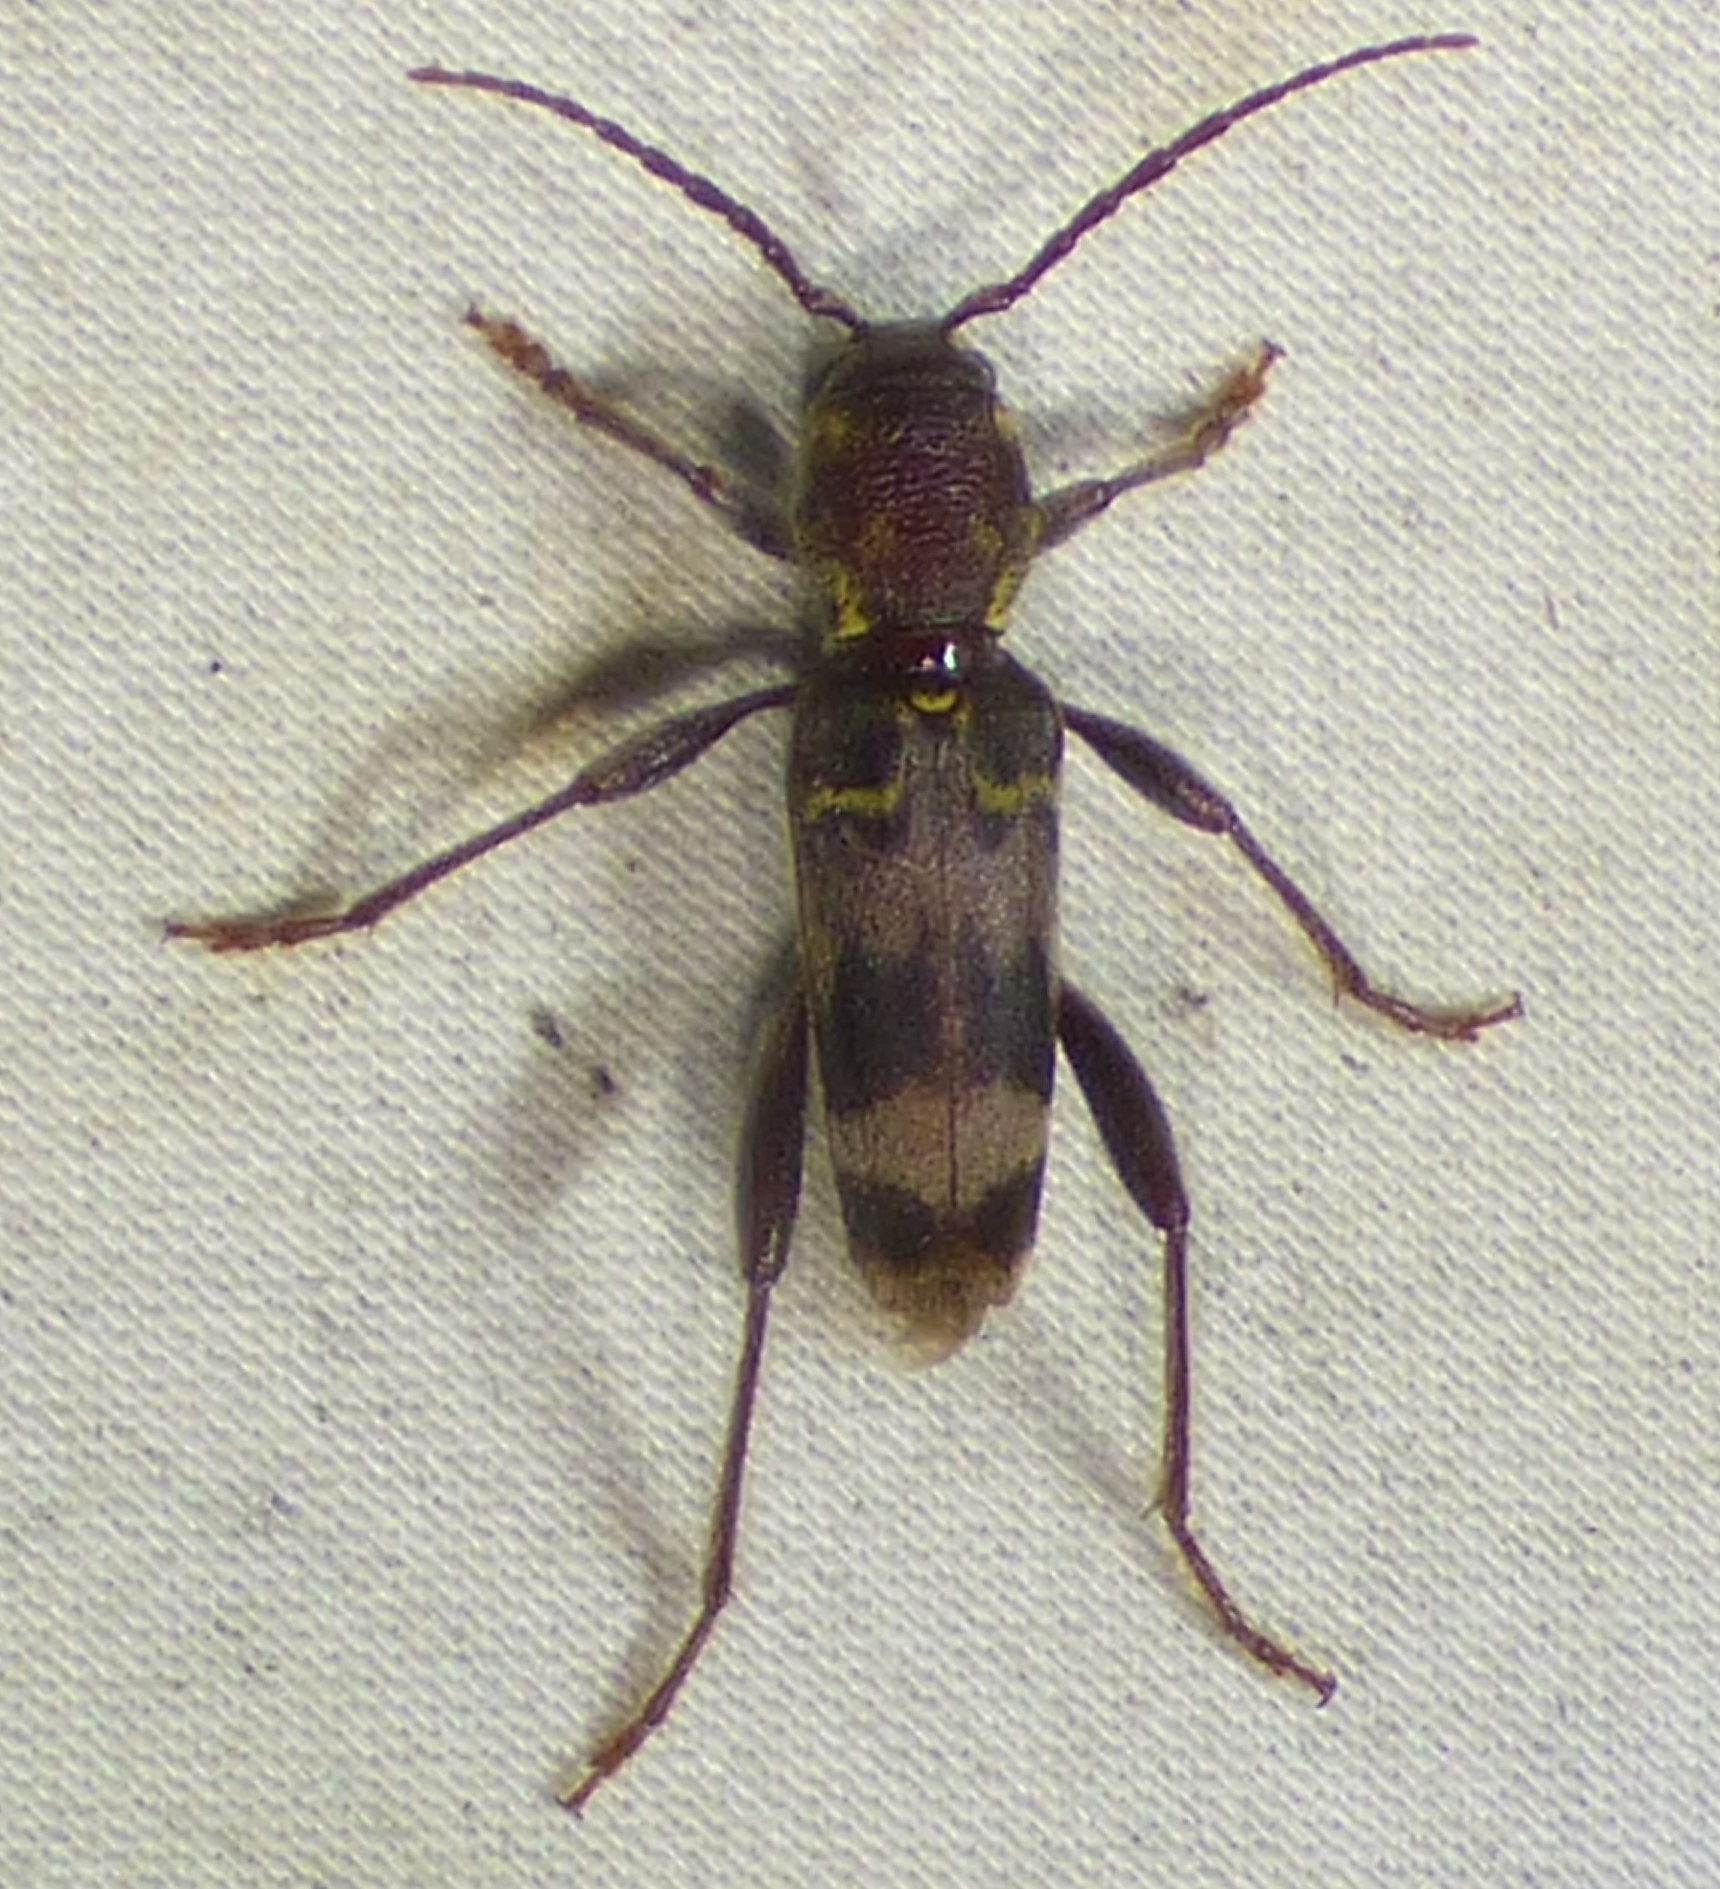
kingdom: Animalia
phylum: Arthropoda
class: Insecta
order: Coleoptera
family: Cerambycidae
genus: Xylotrechus
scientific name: Xylotrechus colonus
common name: Long-horned beetle
